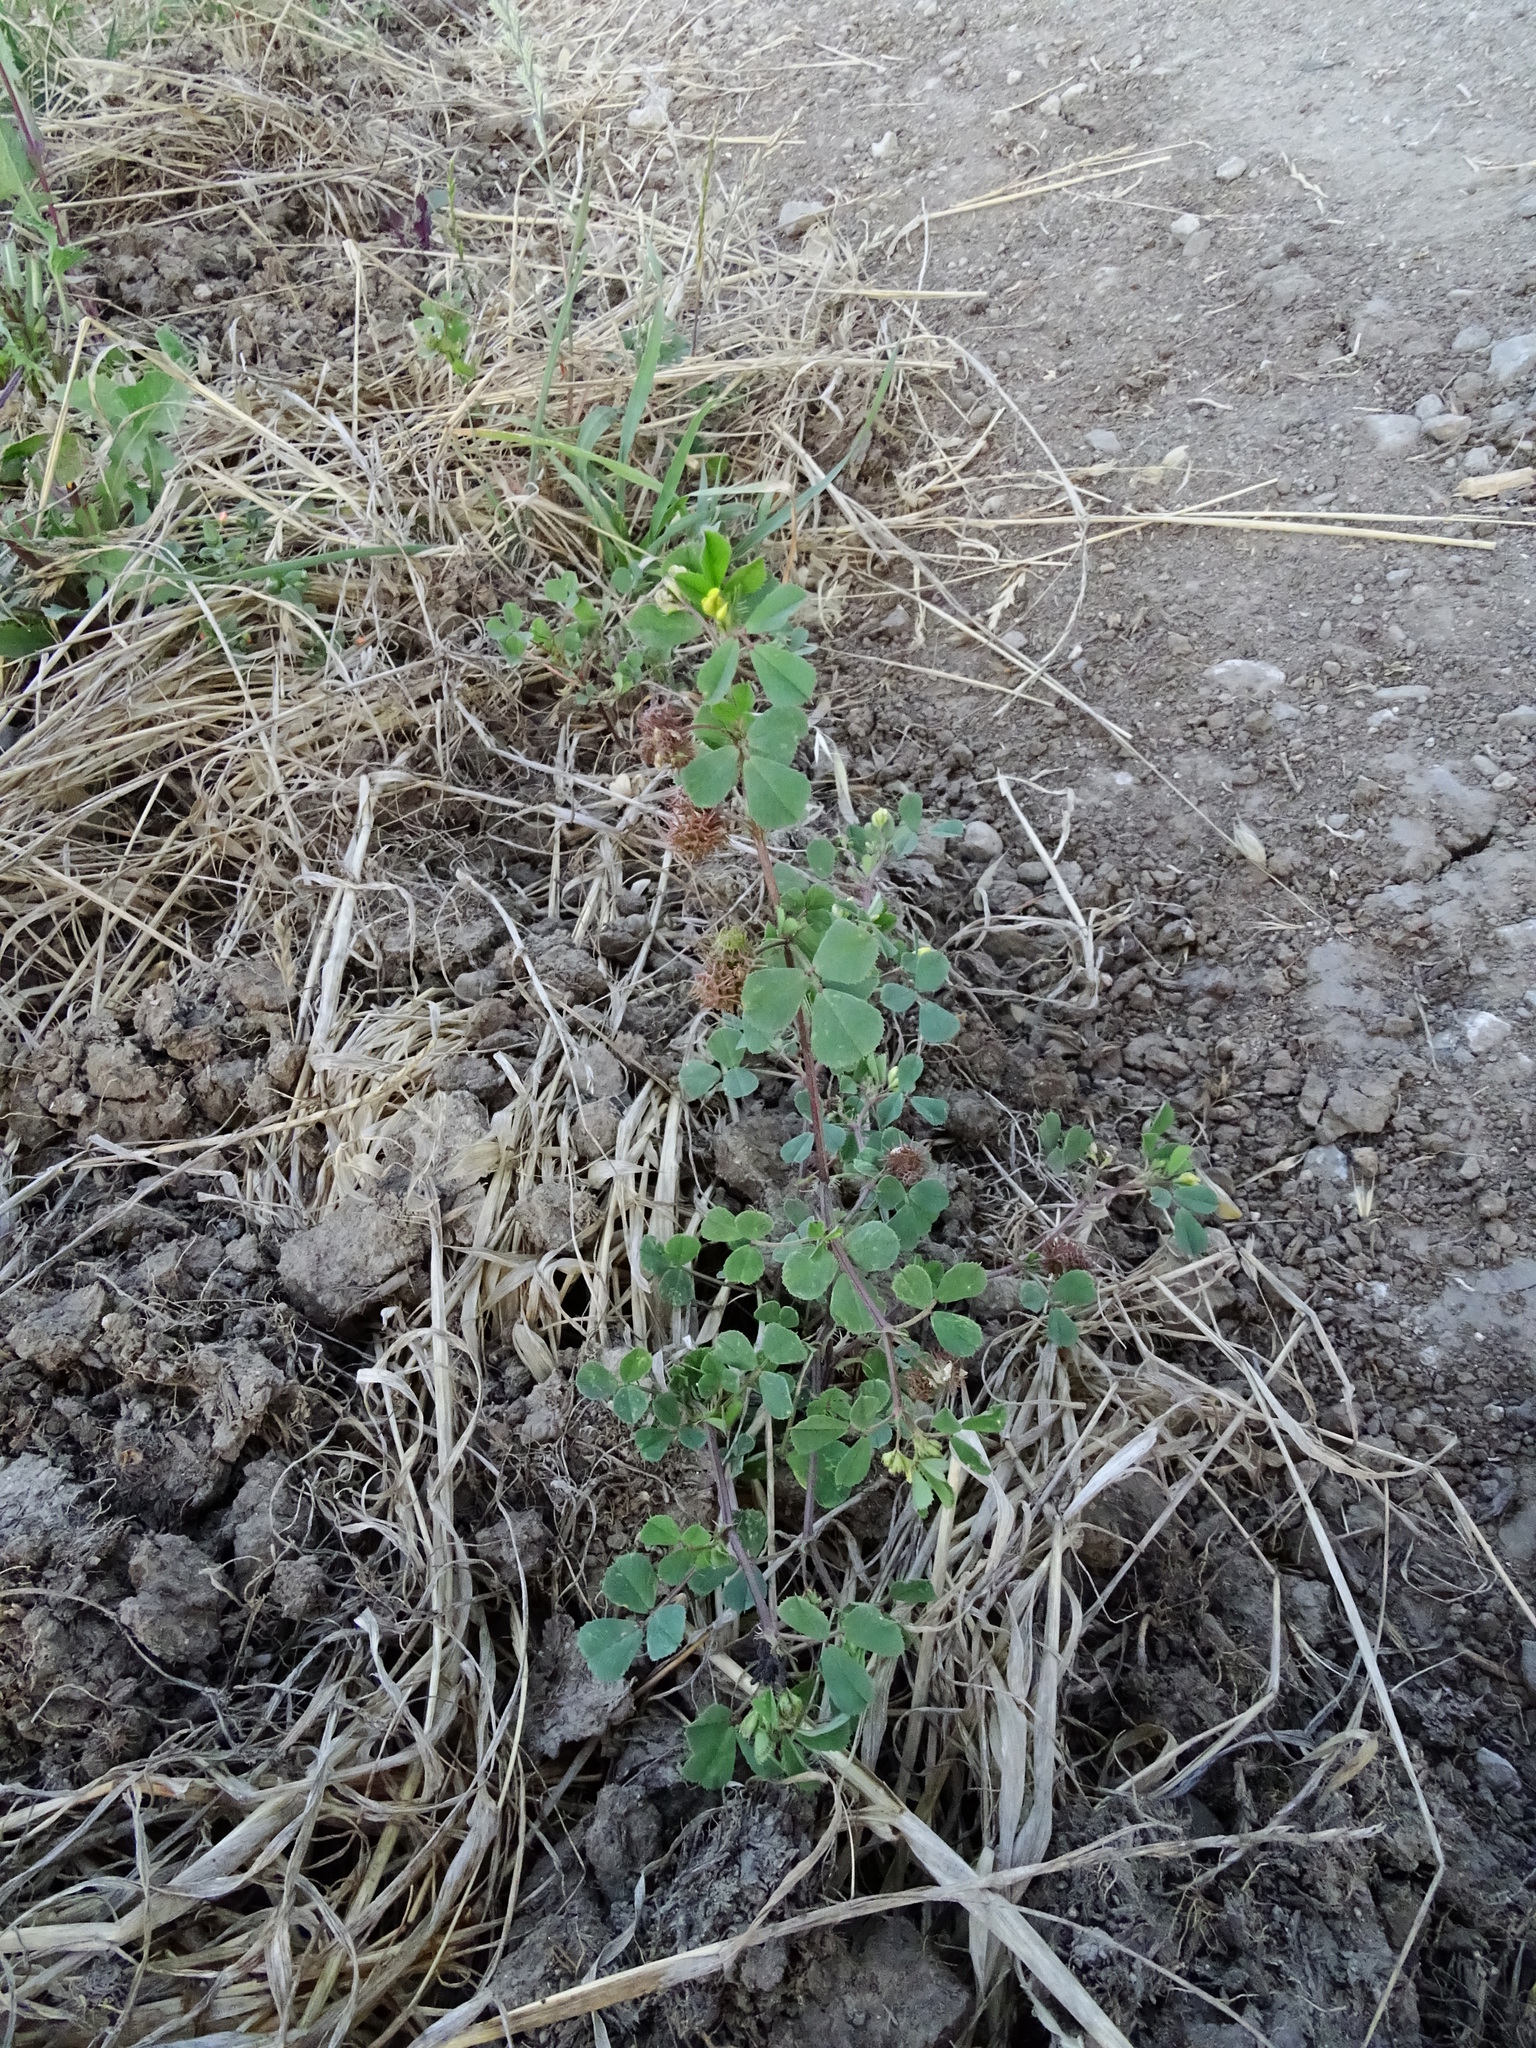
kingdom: Plantae
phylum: Tracheophyta
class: Magnoliopsida
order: Fabales
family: Fabaceae
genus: Medicago
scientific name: Medicago polymorpha
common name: Burclover
